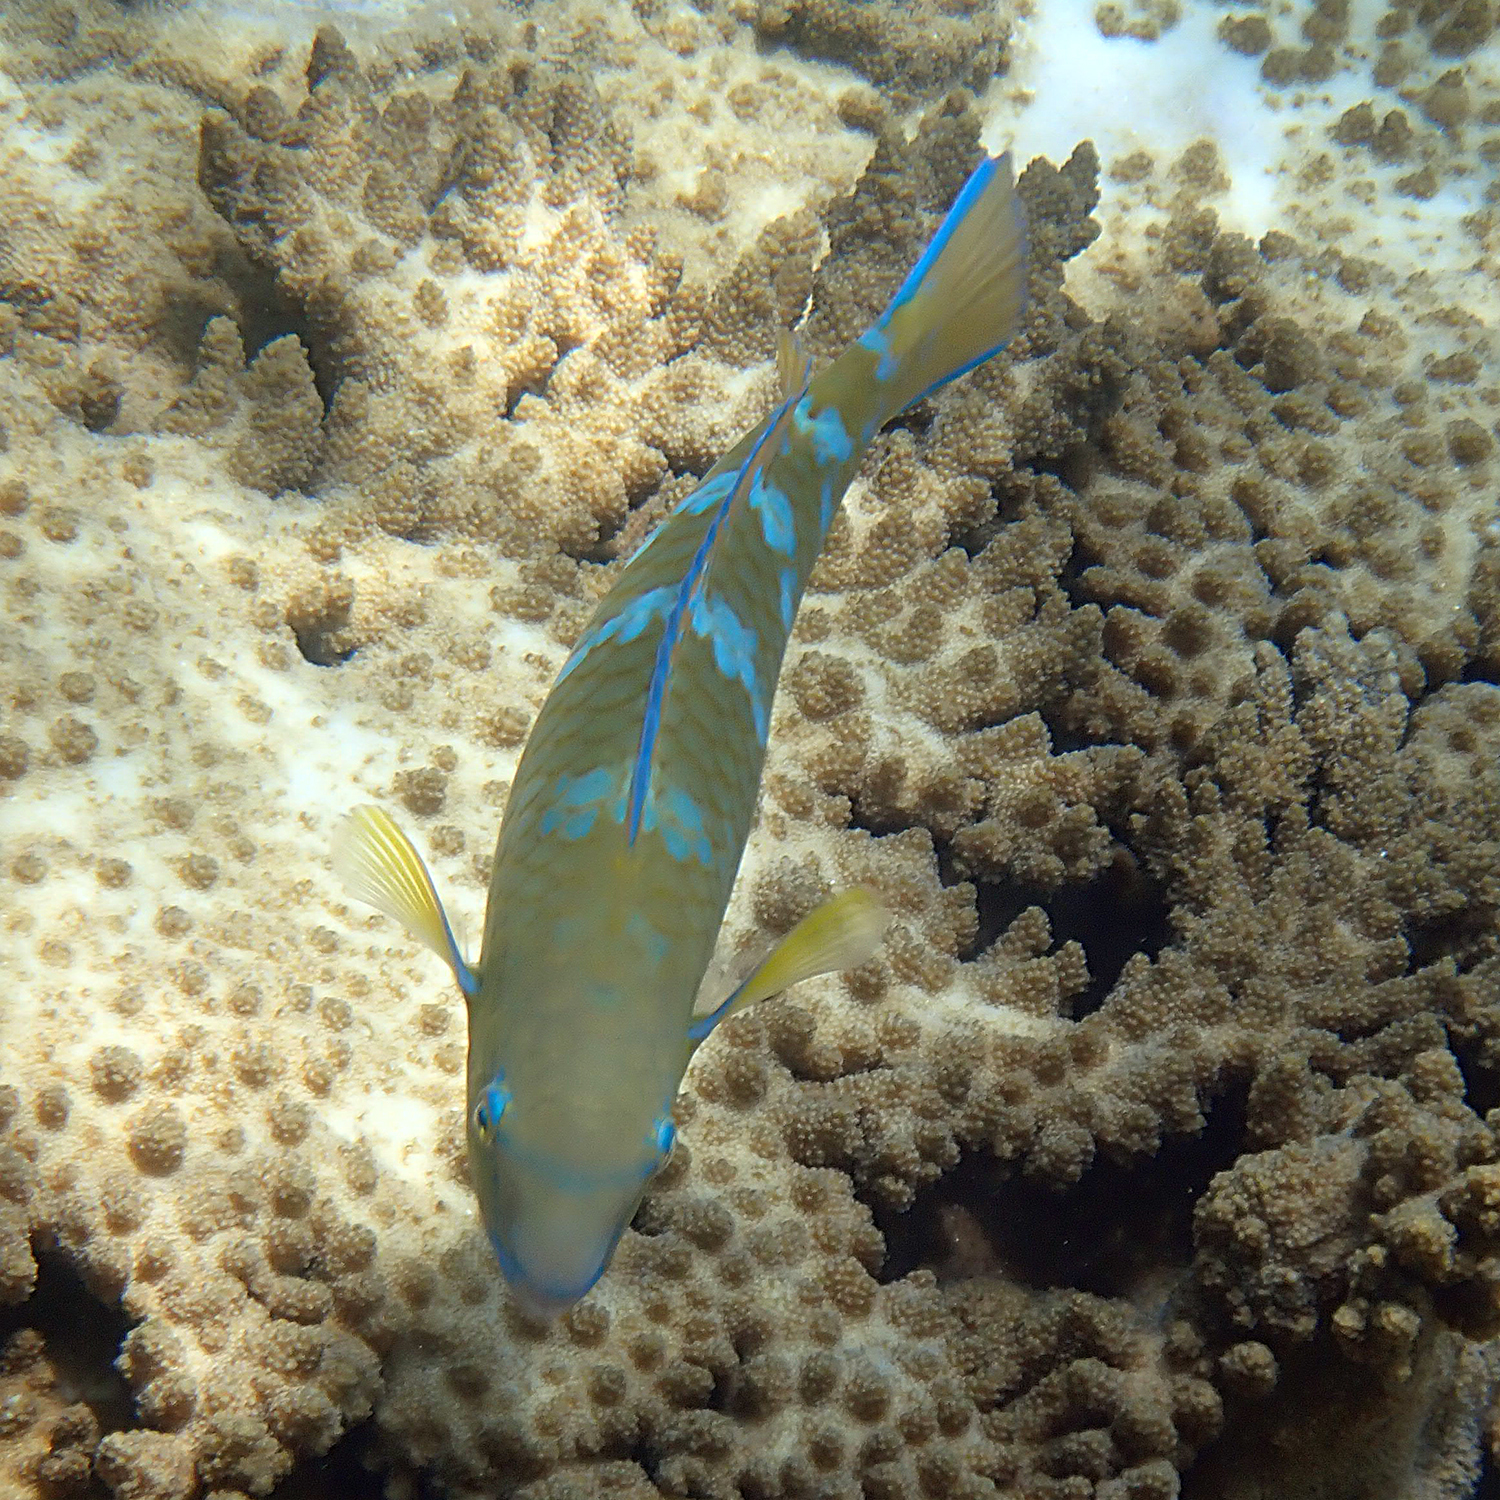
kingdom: Animalia
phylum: Chordata
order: Perciformes
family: Scaridae
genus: Scarus
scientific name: Scarus ghobban
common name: Blue-barred parrotfish
